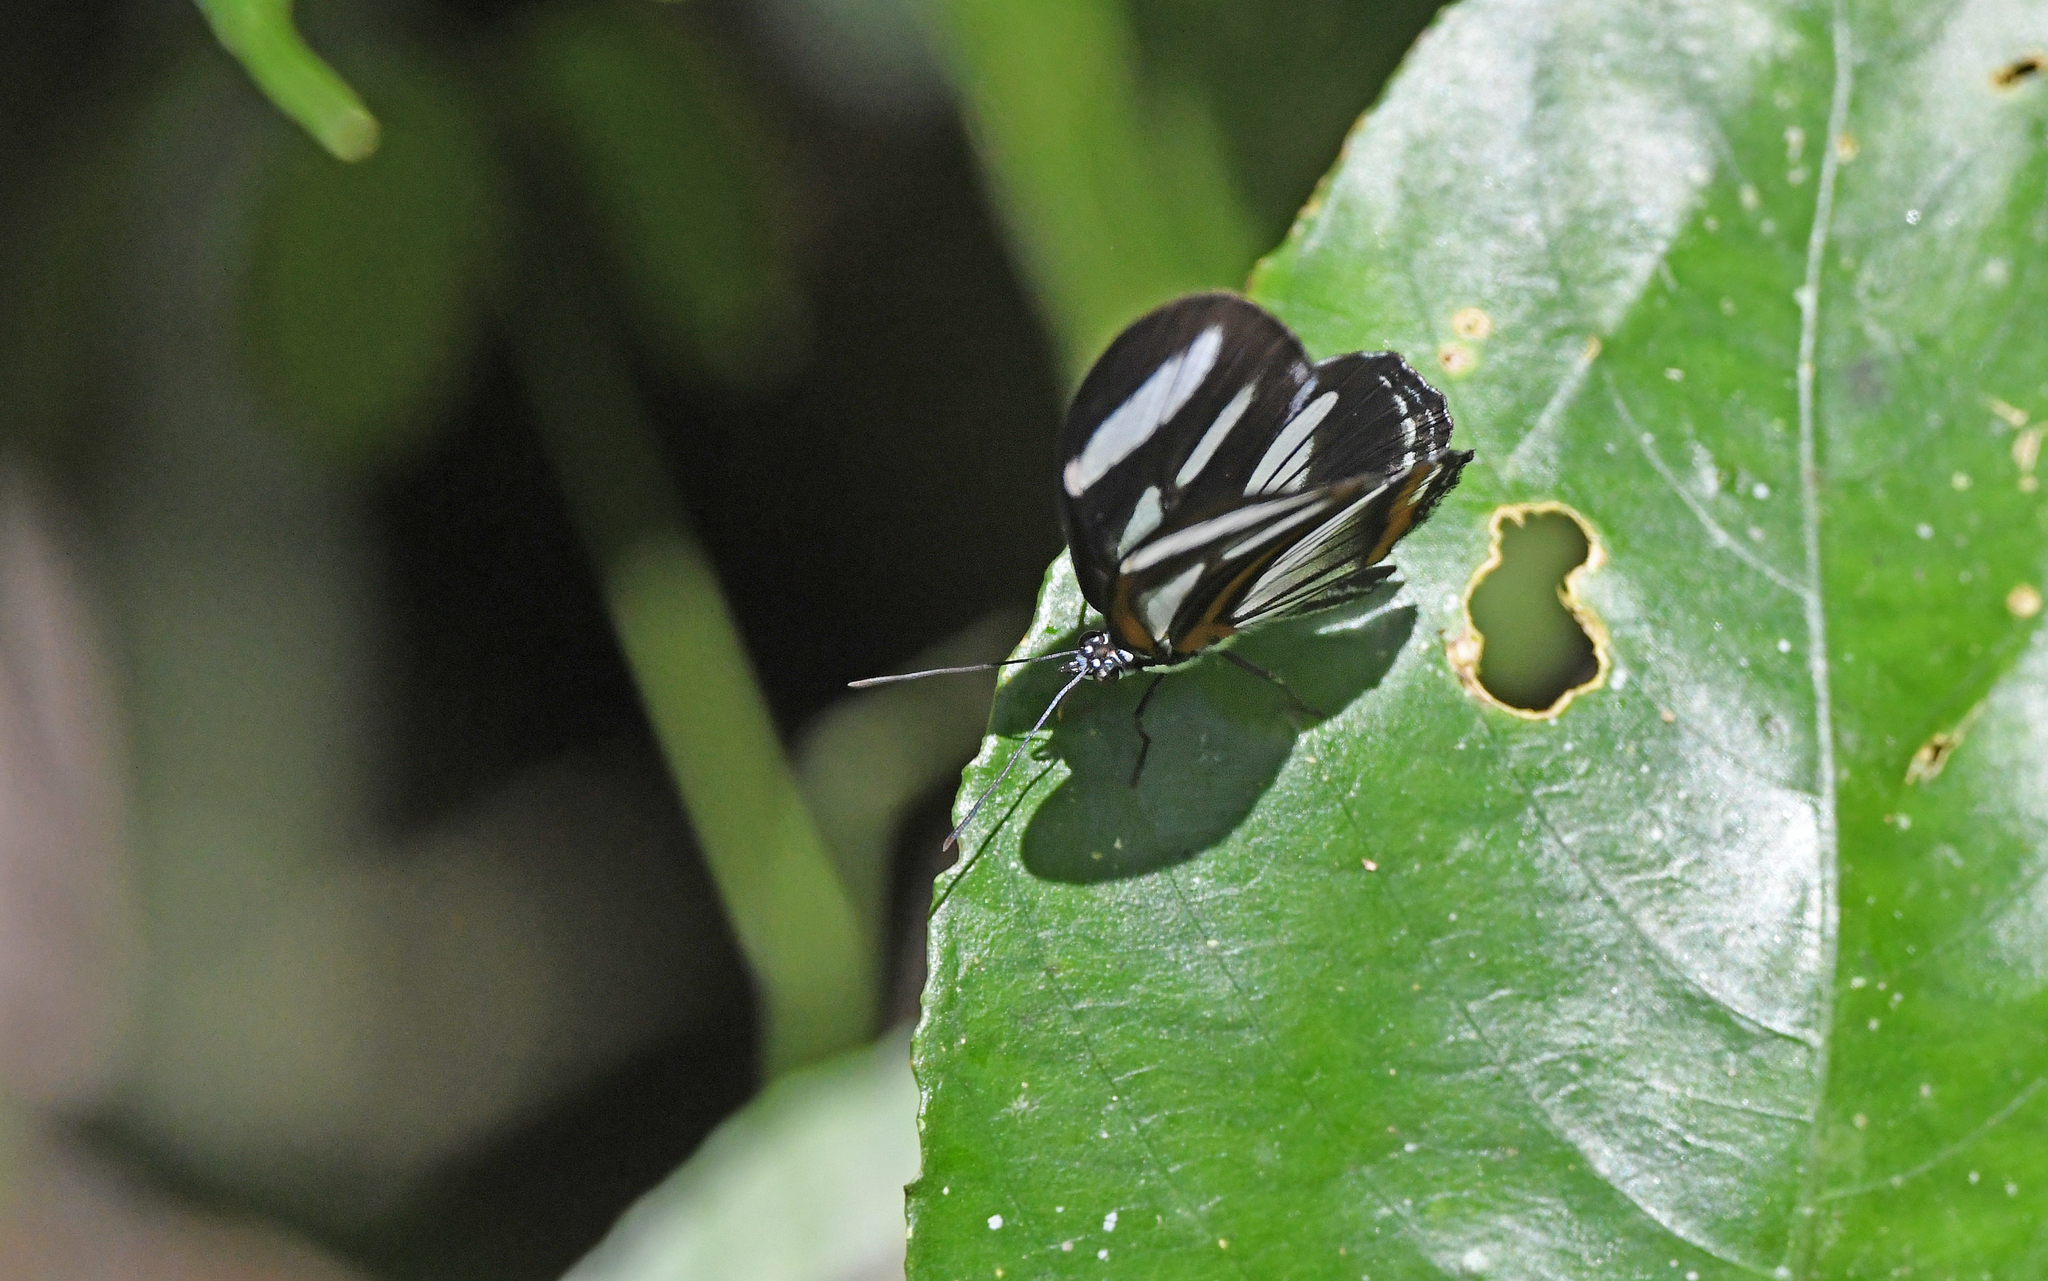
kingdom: Animalia
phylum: Arthropoda
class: Insecta
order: Lepidoptera
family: Nymphalidae
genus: Vila
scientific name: Vila azeca
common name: Azeca banner
